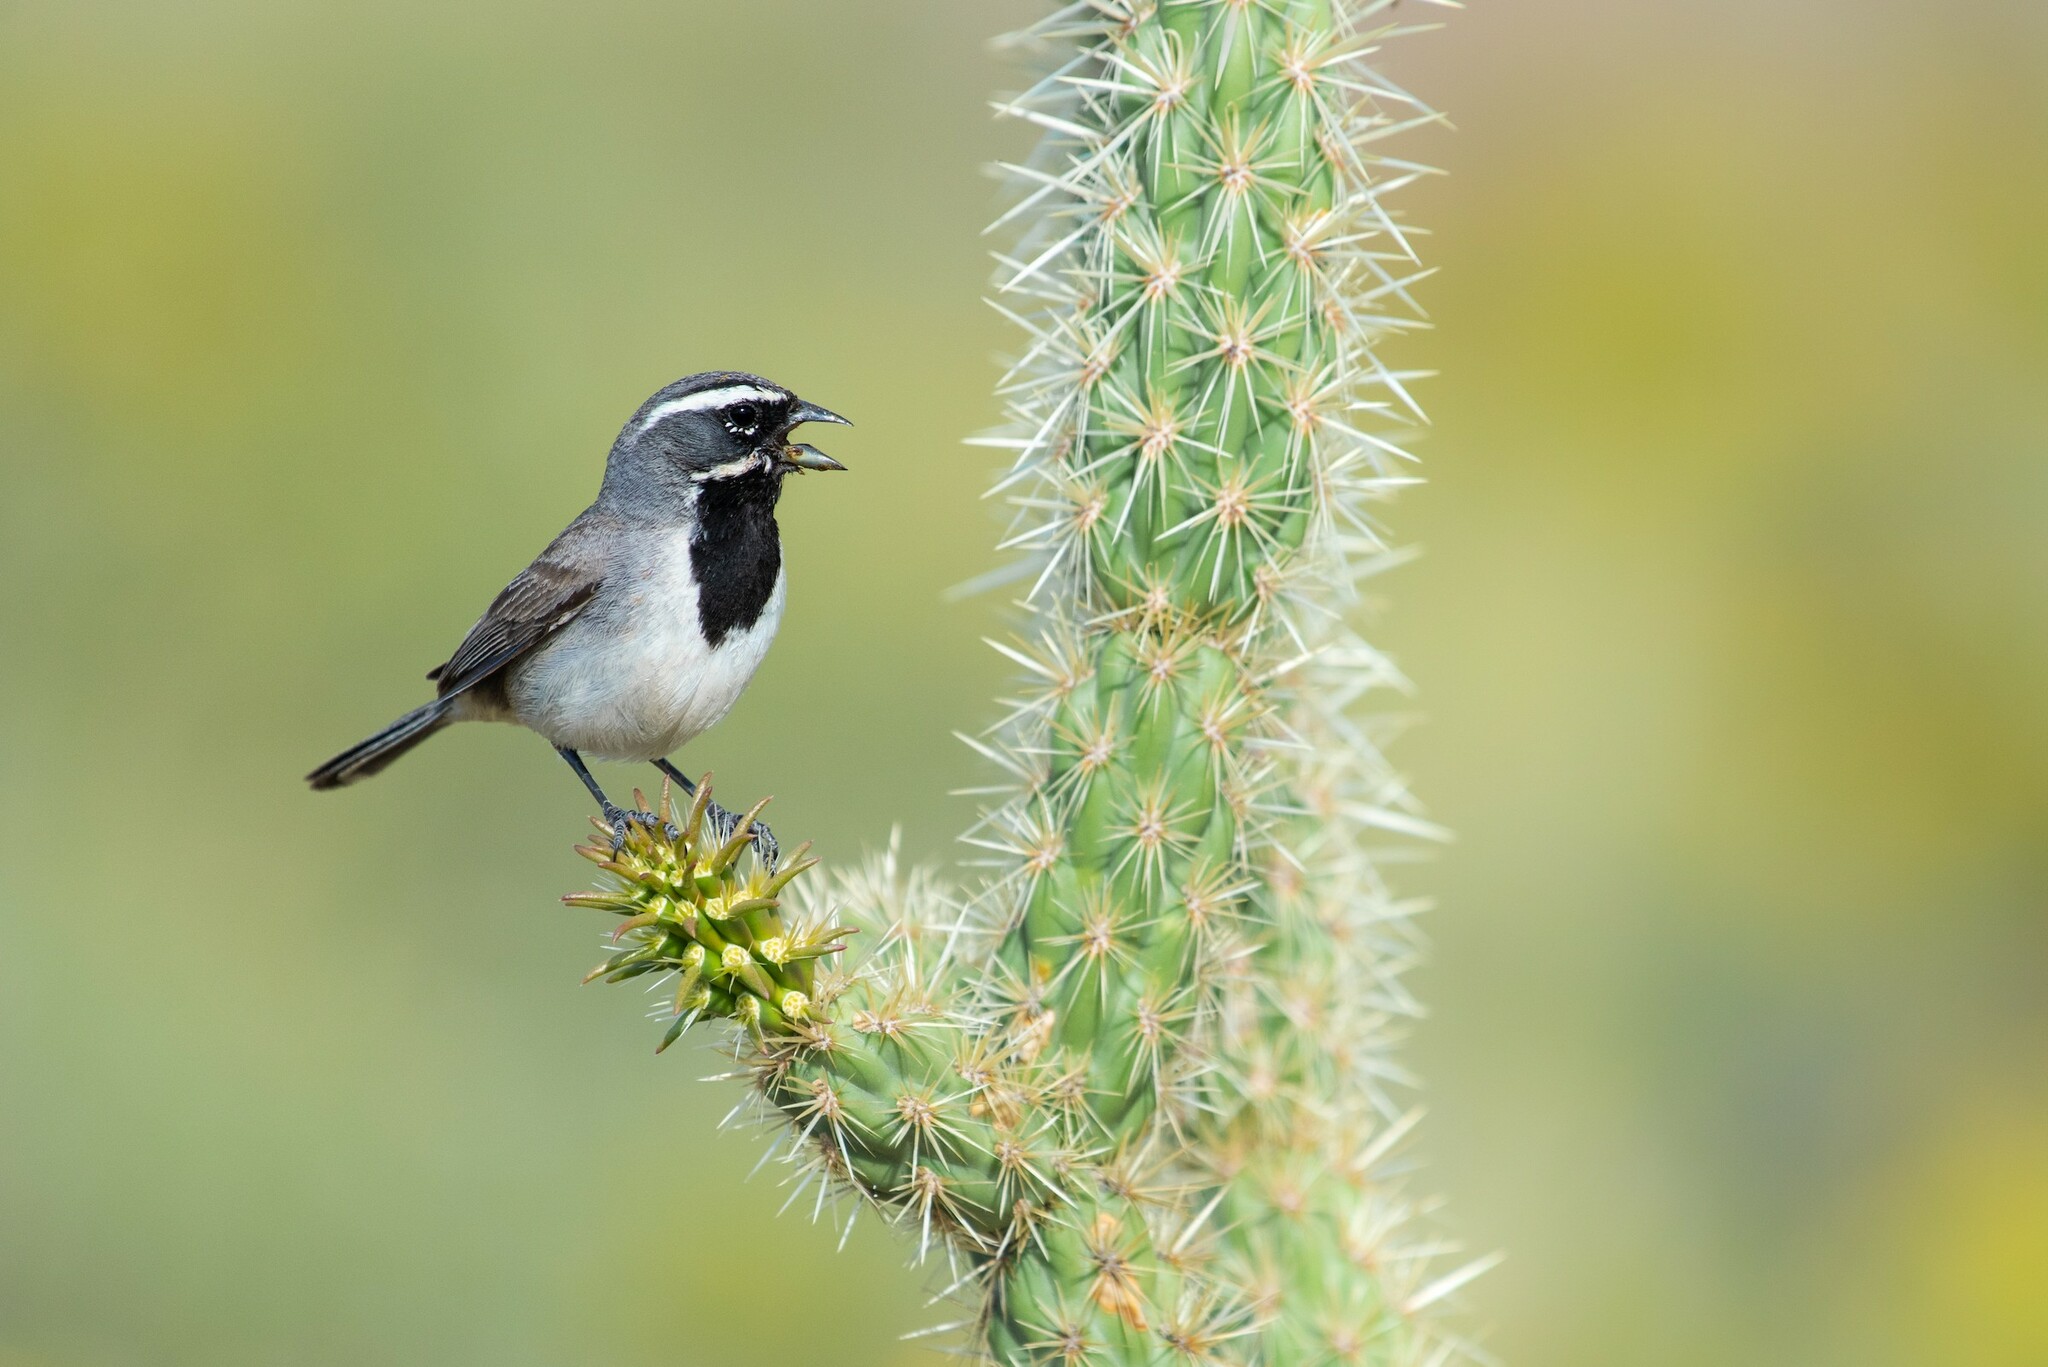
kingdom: Animalia
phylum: Chordata
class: Aves
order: Passeriformes
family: Passerellidae
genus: Amphispiza
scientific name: Amphispiza bilineata
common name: Black-throated sparrow
